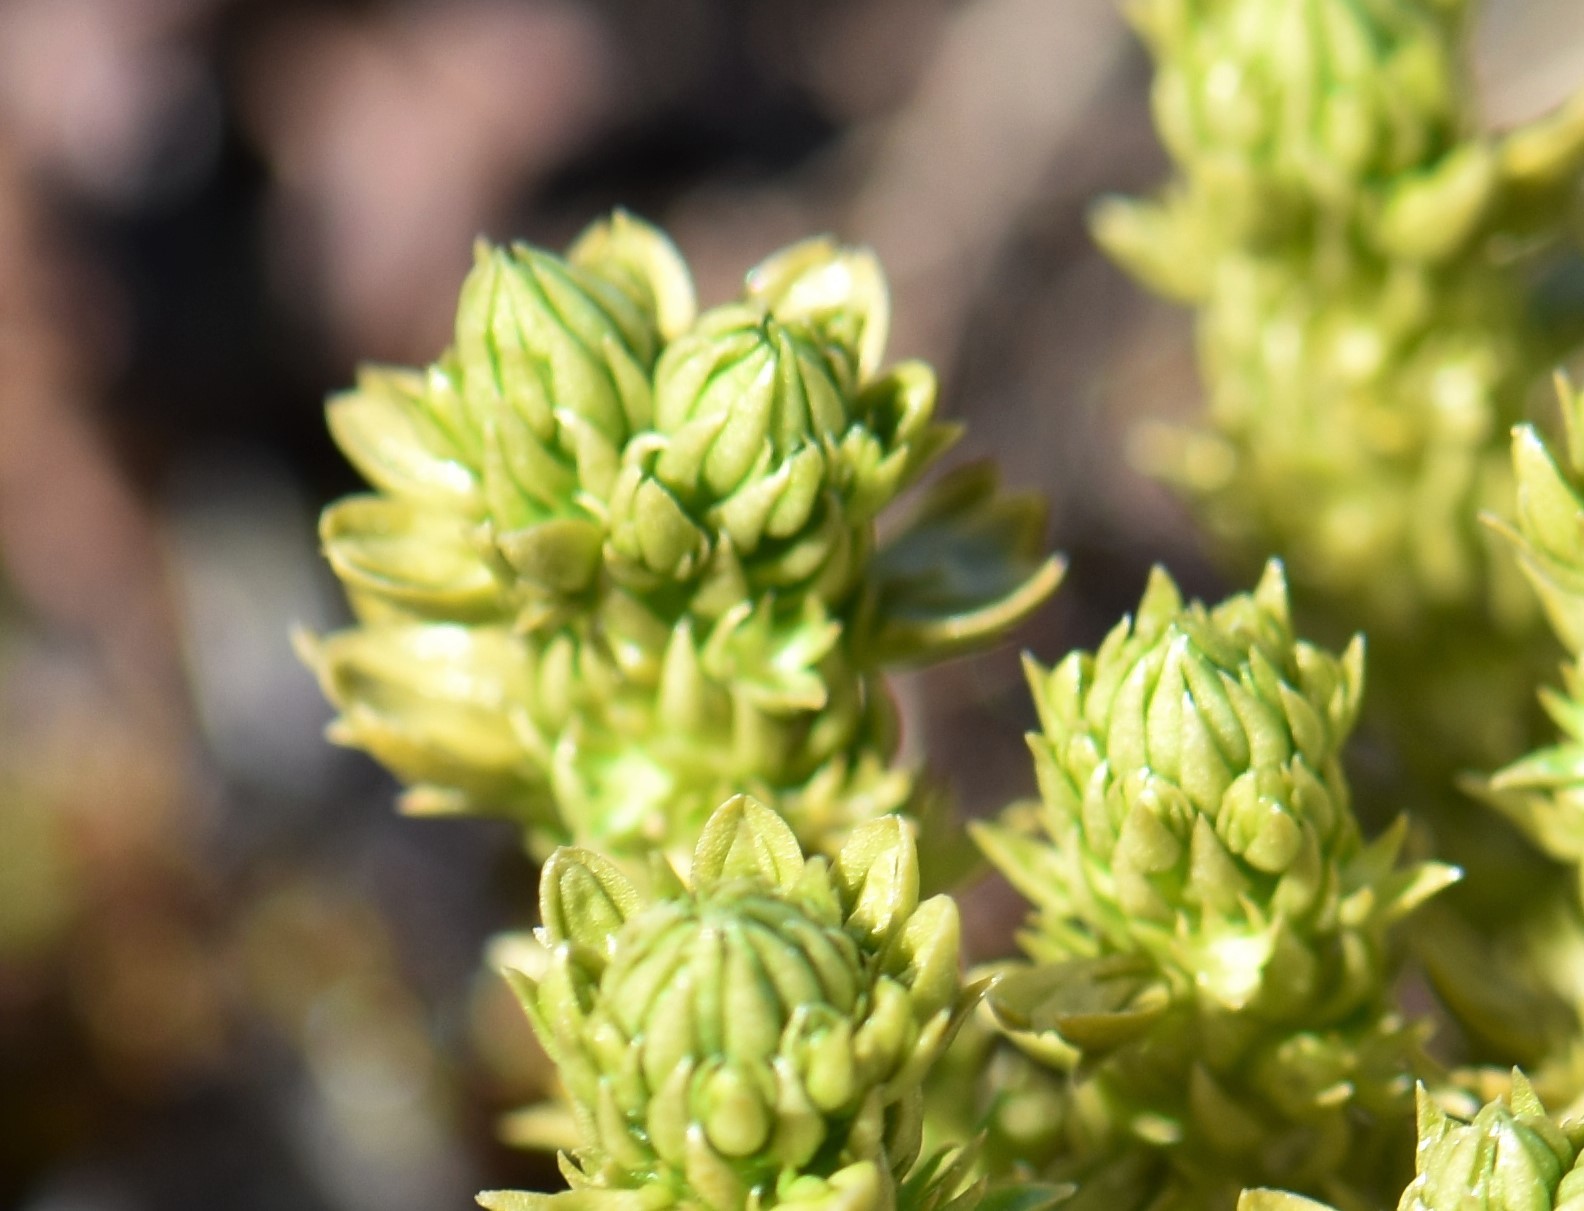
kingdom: Plantae
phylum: Tracheophyta
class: Lycopodiopsida
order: Lycopodiales
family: Lycopodiaceae
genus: Huperzia
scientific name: Huperzia continentalis
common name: Continental firmoss
